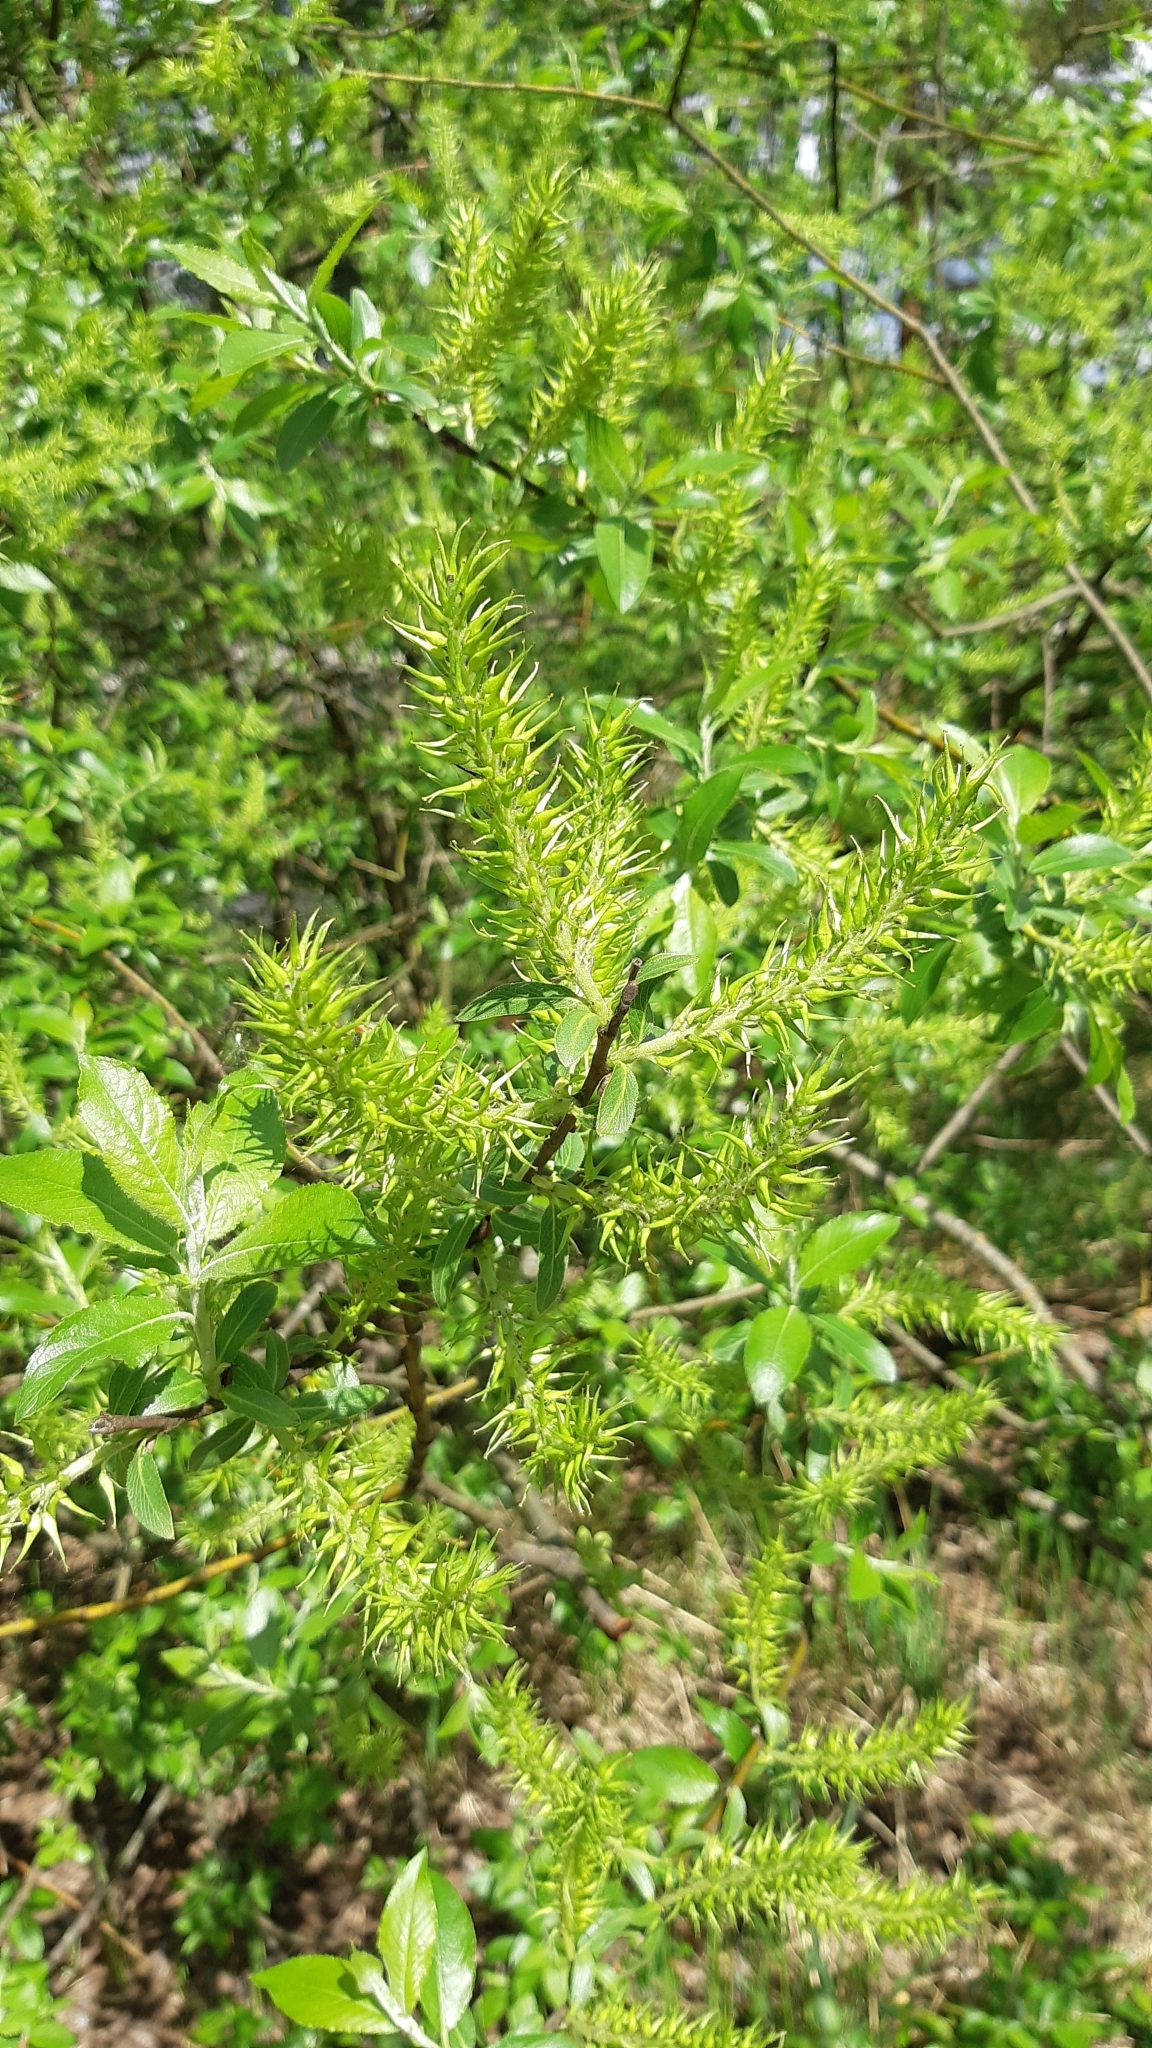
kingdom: Plantae
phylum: Tracheophyta
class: Magnoliopsida
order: Malpighiales
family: Salicaceae
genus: Salix
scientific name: Salix myrsinifolia
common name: Dark-leaved willow
